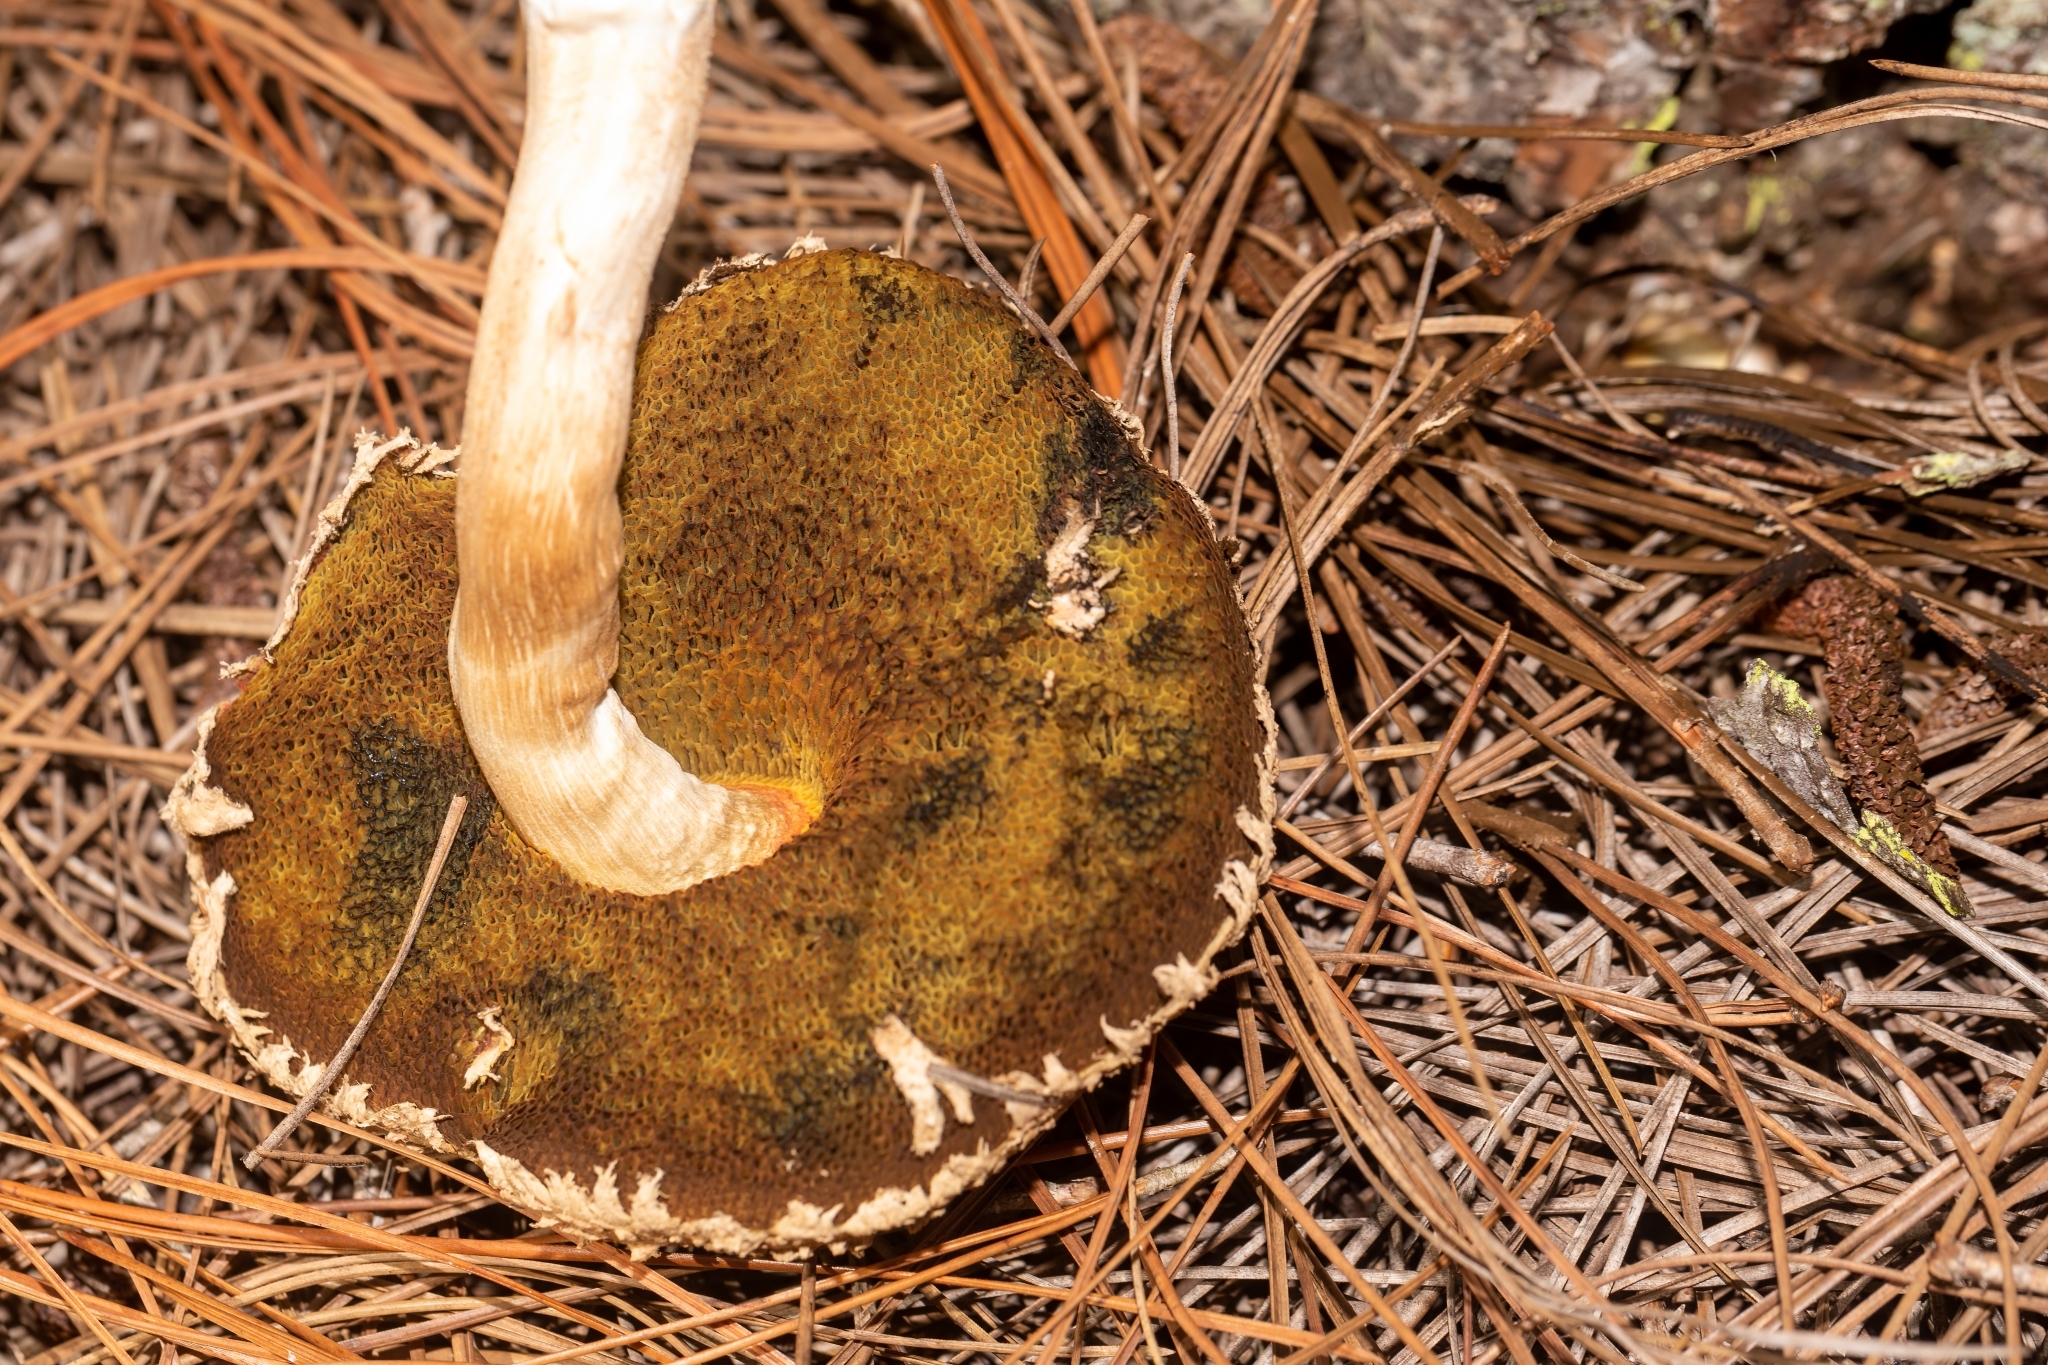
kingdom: Fungi
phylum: Basidiomycota
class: Agaricomycetes
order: Boletales
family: Boletaceae
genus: Boletellus
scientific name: Boletellus ananas
